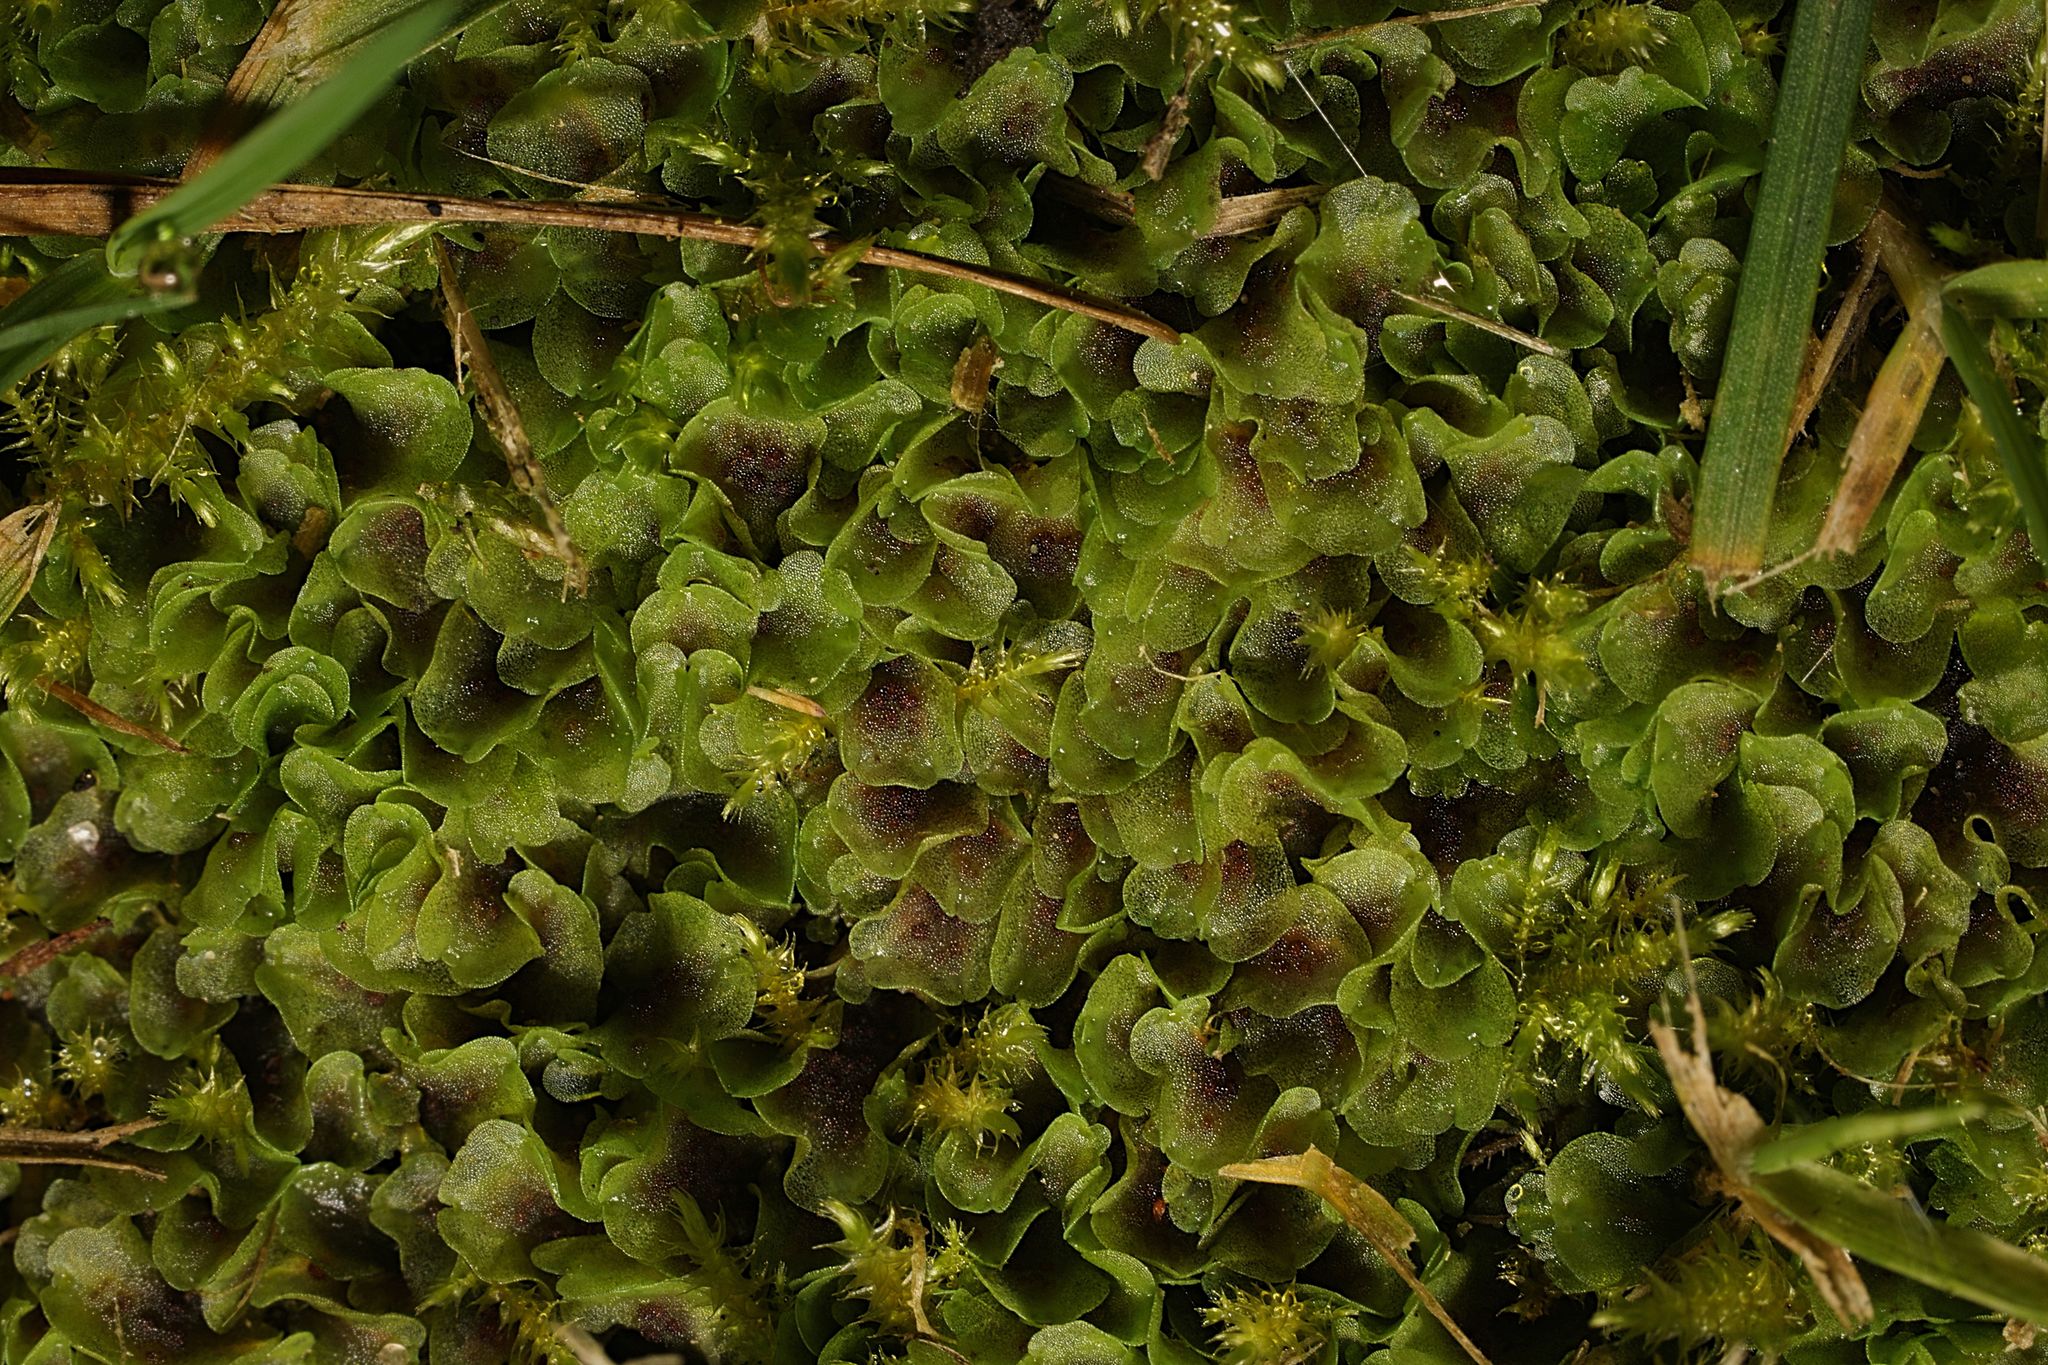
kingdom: Plantae
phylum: Marchantiophyta
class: Jungermanniopsida
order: Pelliales
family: Pelliaceae
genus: Pellia
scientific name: Pellia neesiana
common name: Nees  pellia
